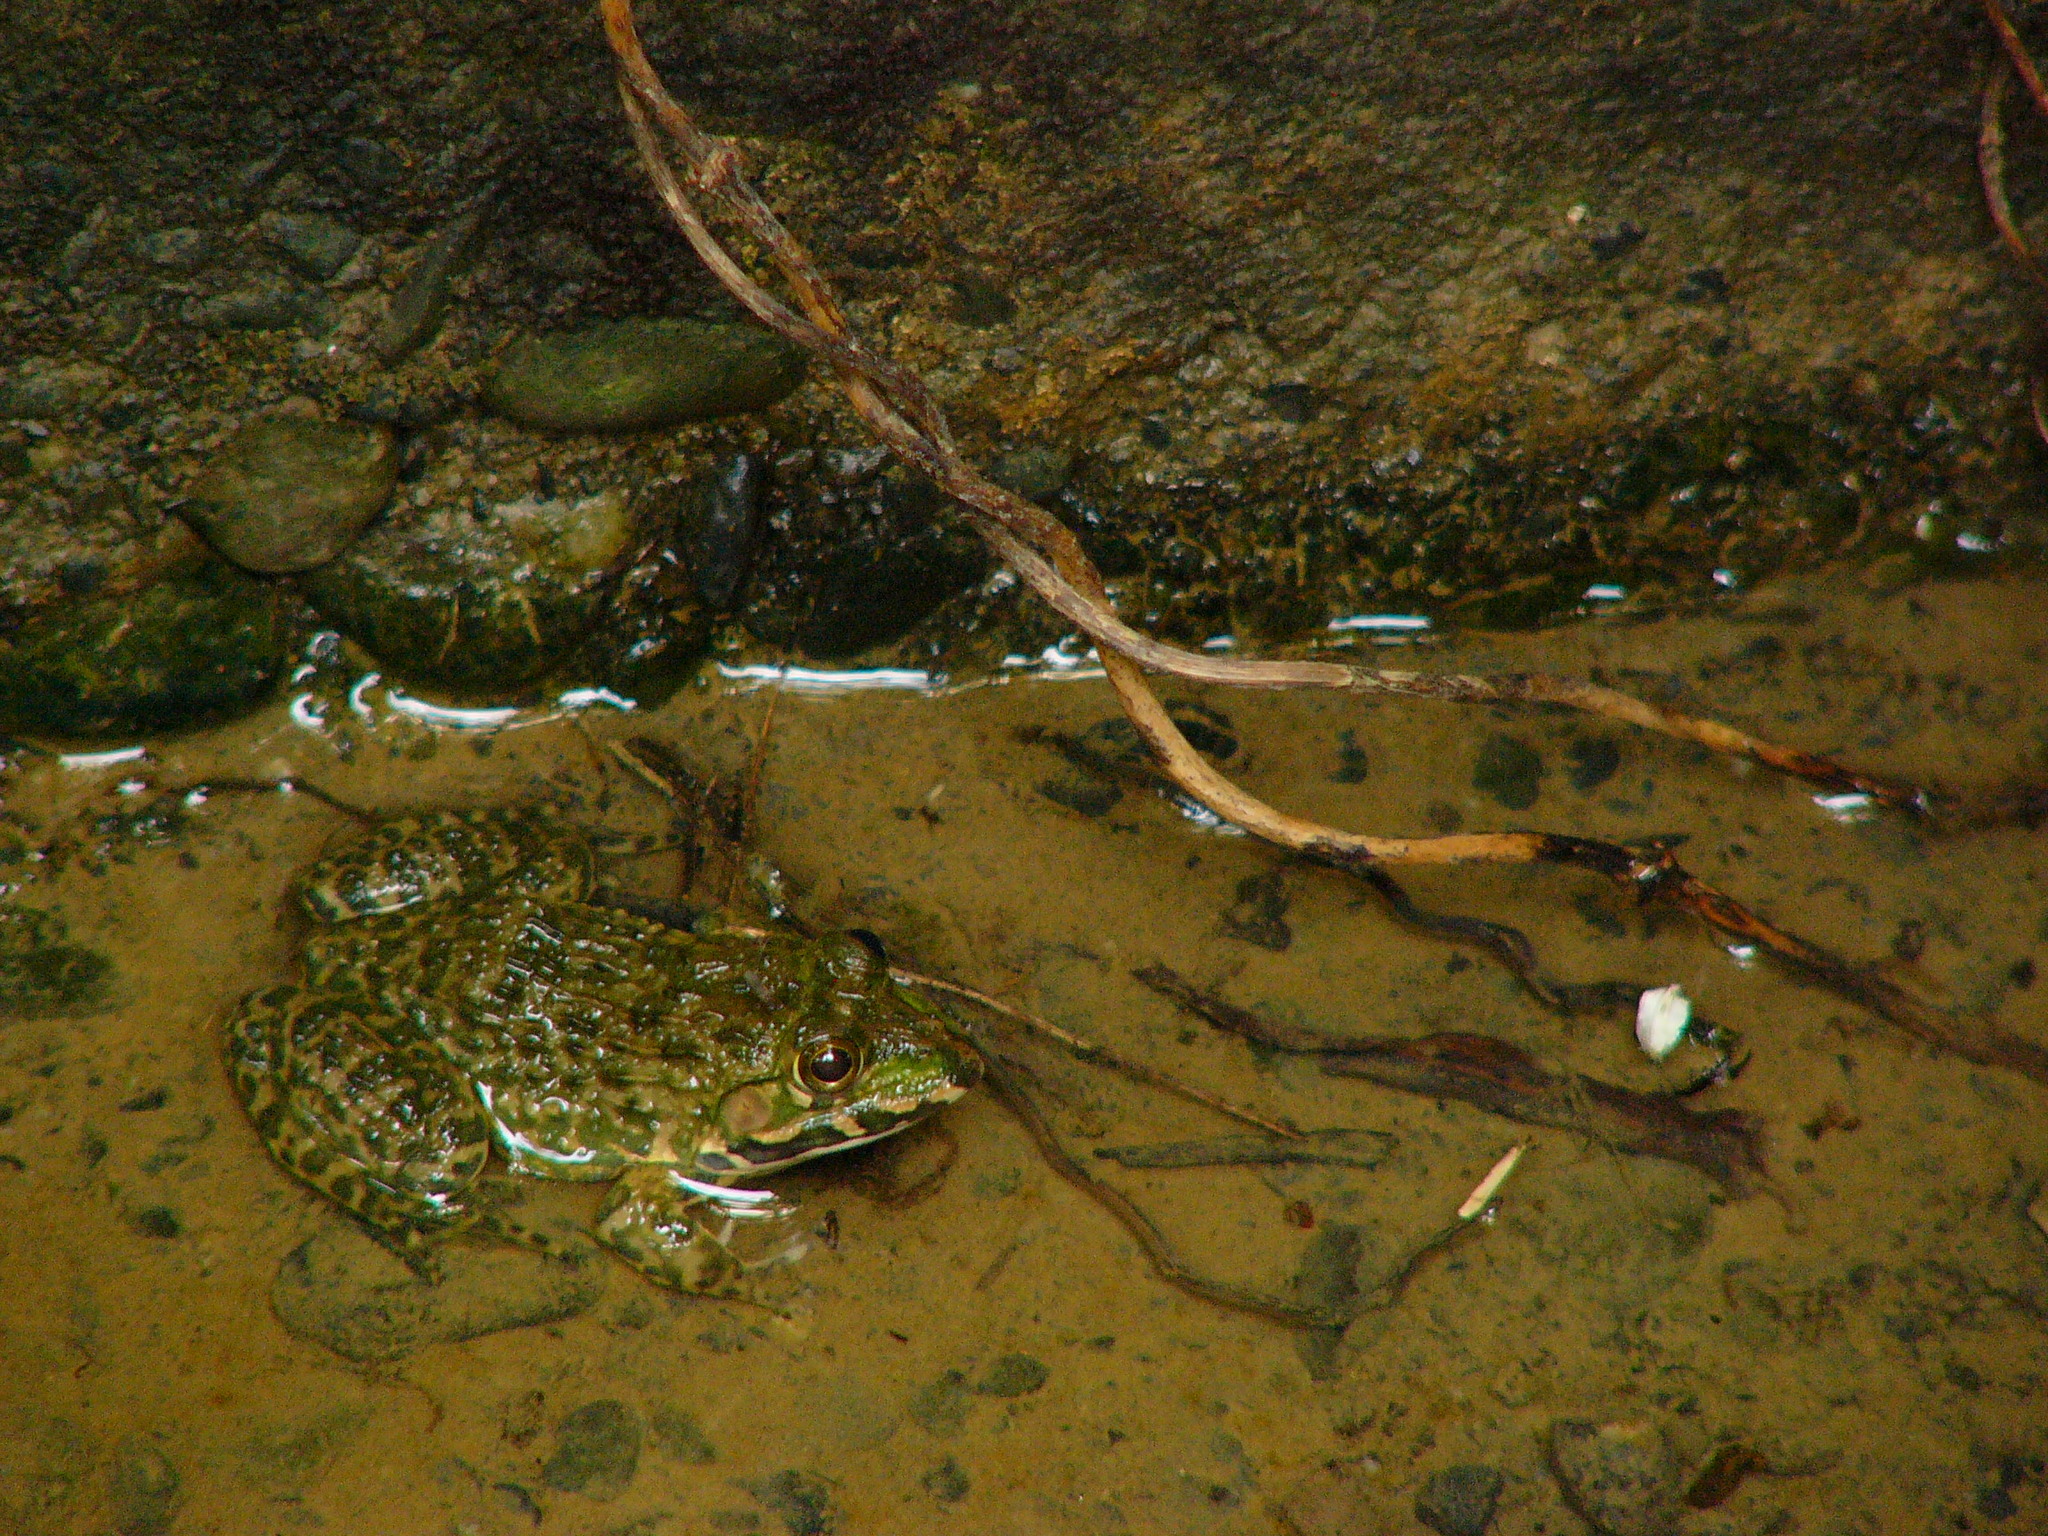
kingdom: Animalia
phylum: Chordata
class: Amphibia
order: Anura
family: Dicroglossidae
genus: Hoplobatrachus
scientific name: Hoplobatrachus rugulosus
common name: Chinese edible frog
